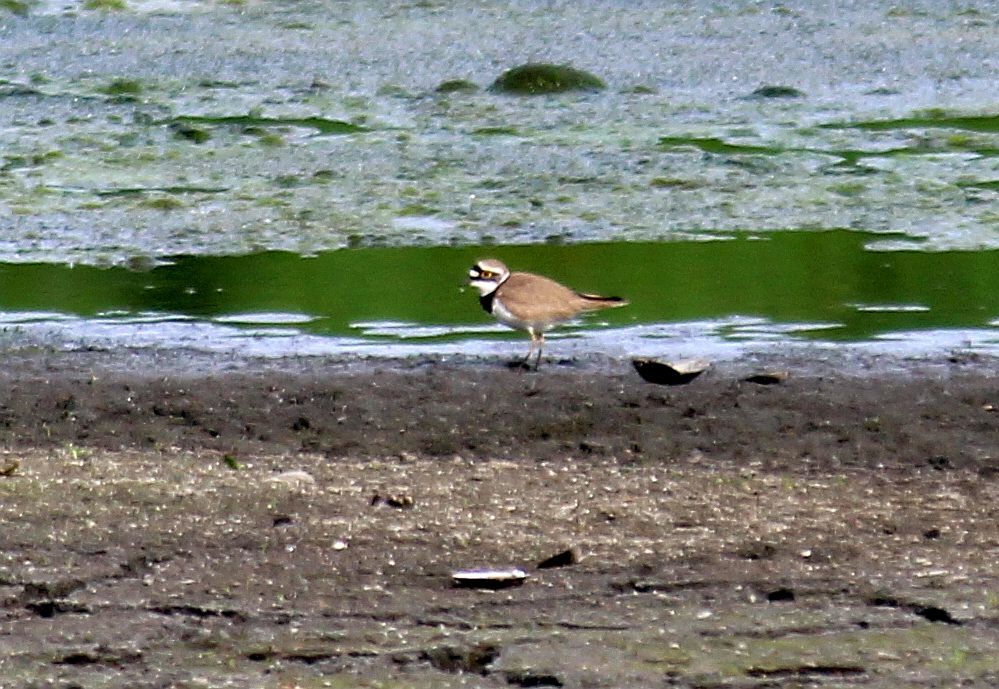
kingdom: Animalia
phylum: Chordata
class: Aves
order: Charadriiformes
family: Charadriidae
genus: Charadrius
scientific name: Charadrius dubius
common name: Little ringed plover
